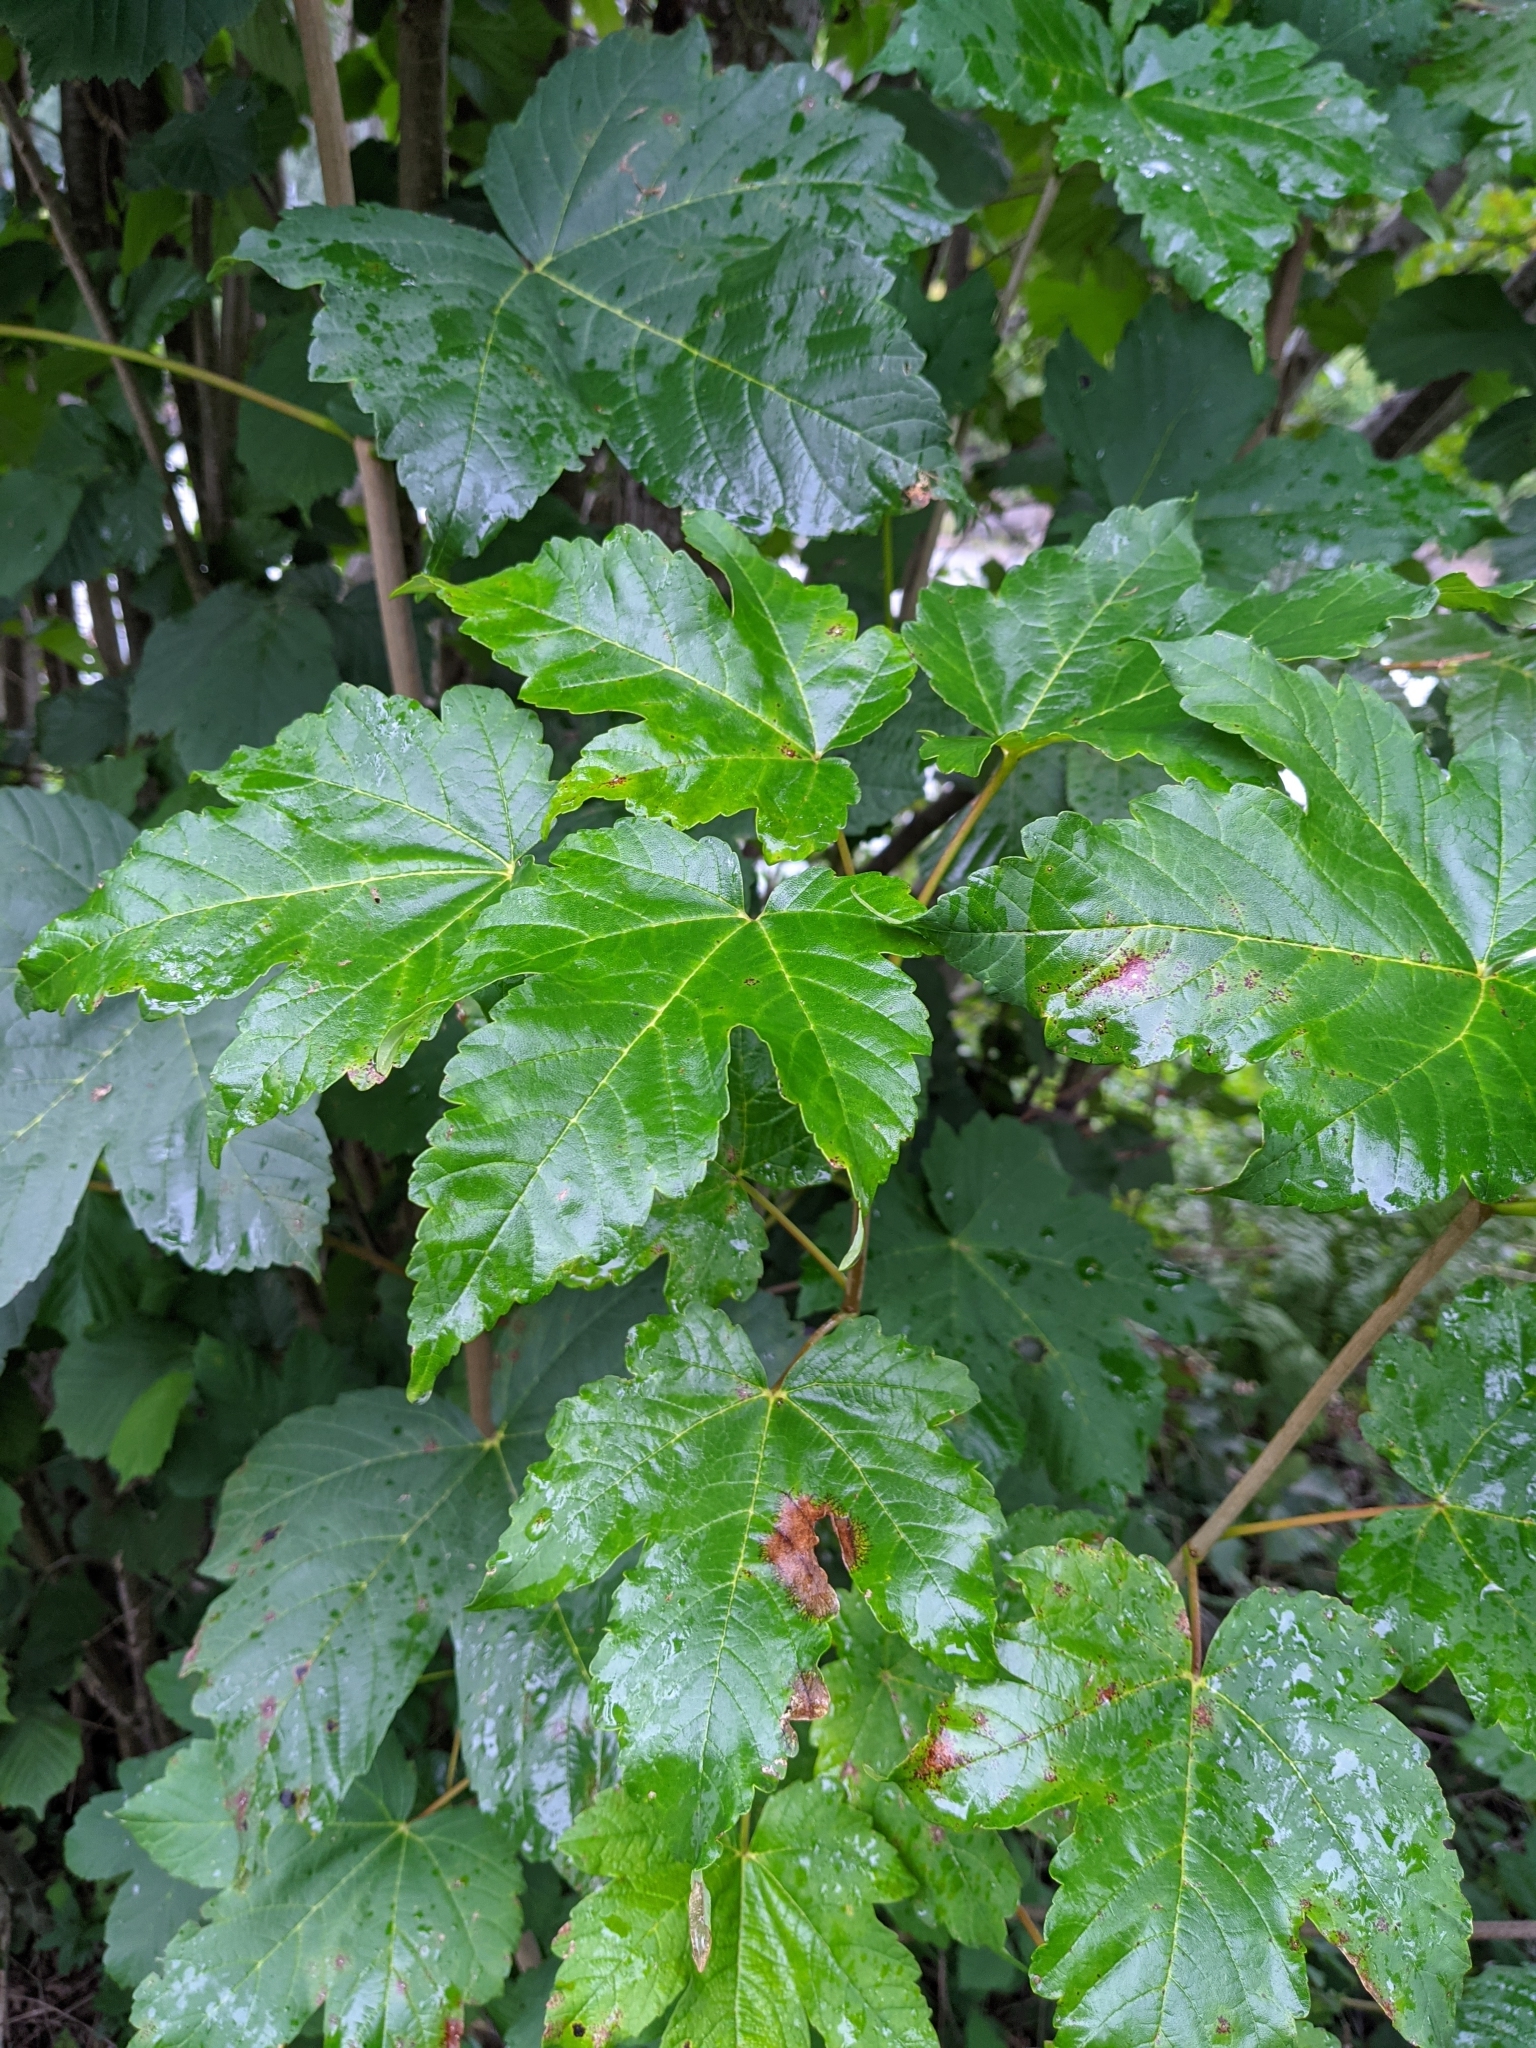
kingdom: Plantae
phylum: Tracheophyta
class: Magnoliopsida
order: Sapindales
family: Sapindaceae
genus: Acer
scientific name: Acer pseudoplatanus
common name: Sycamore
